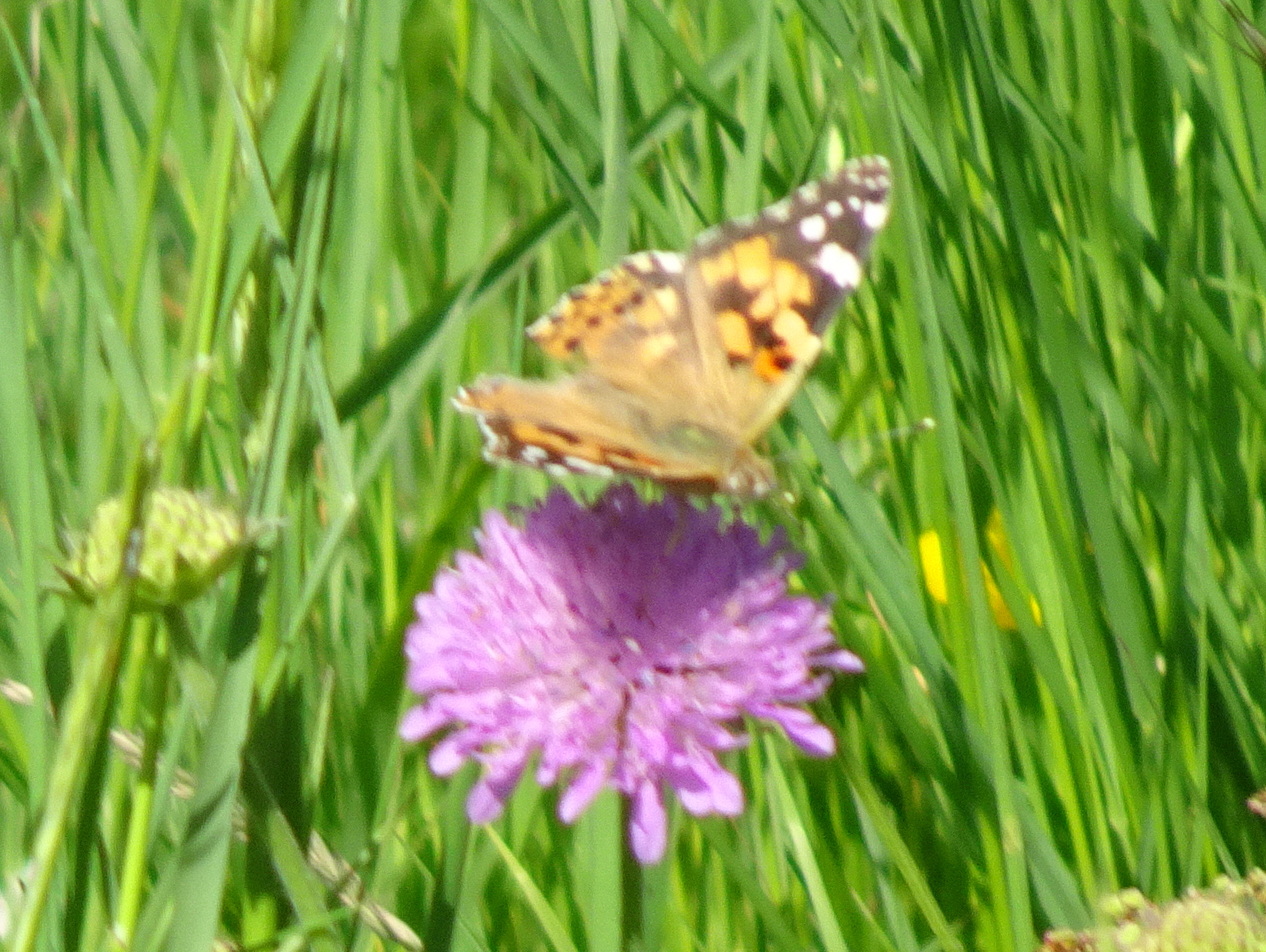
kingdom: Animalia
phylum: Arthropoda
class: Insecta
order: Lepidoptera
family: Nymphalidae
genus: Vanessa
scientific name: Vanessa cardui
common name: Painted lady
